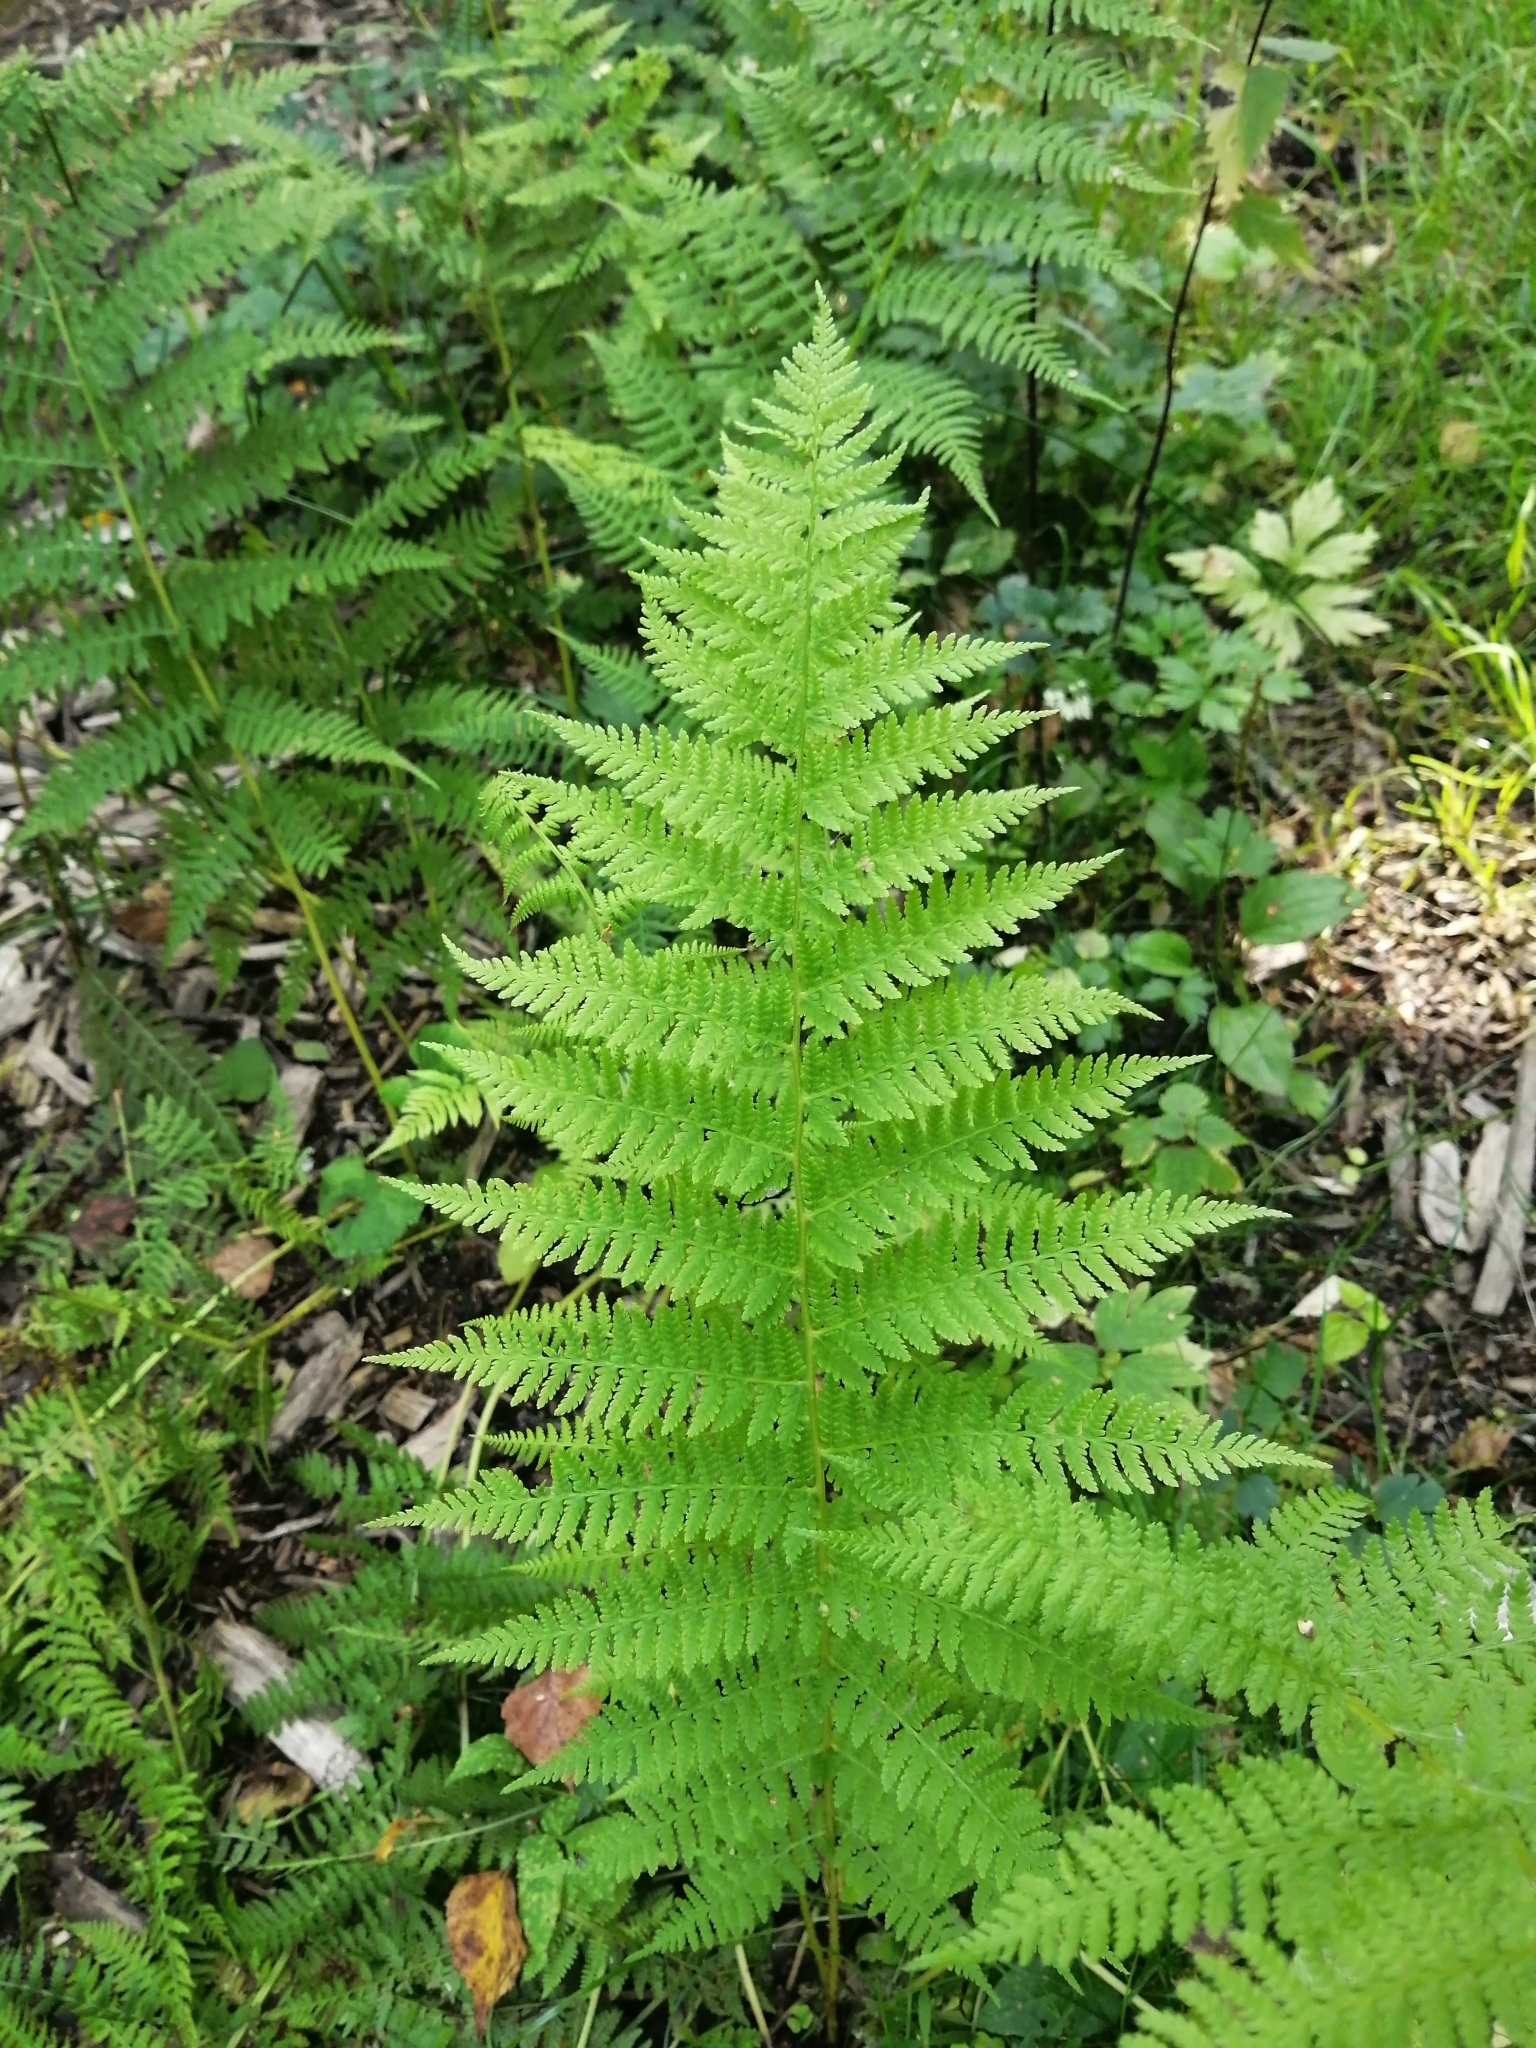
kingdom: Plantae
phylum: Tracheophyta
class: Polypodiopsida
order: Polypodiales
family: Athyriaceae
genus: Athyrium
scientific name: Athyrium filix-femina
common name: Lady fern
